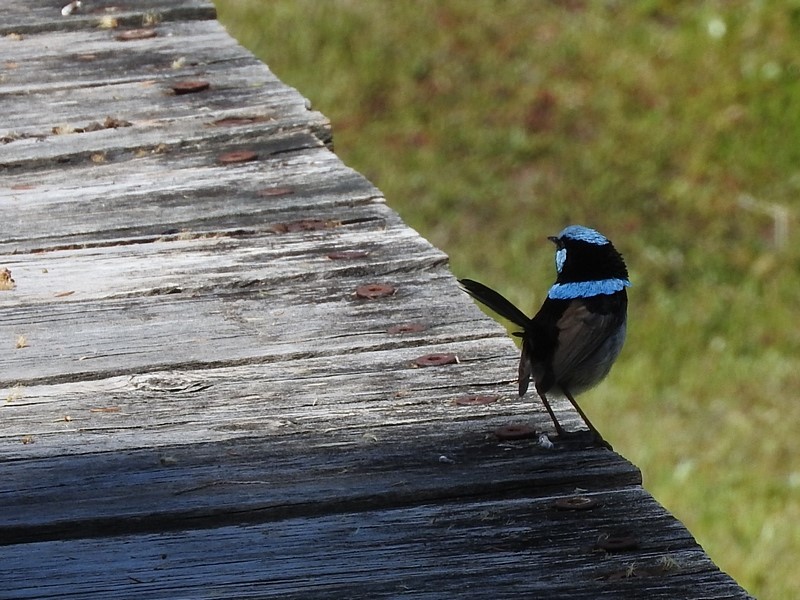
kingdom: Animalia
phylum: Chordata
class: Aves
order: Passeriformes
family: Maluridae
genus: Malurus
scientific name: Malurus cyaneus
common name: Superb fairywren
